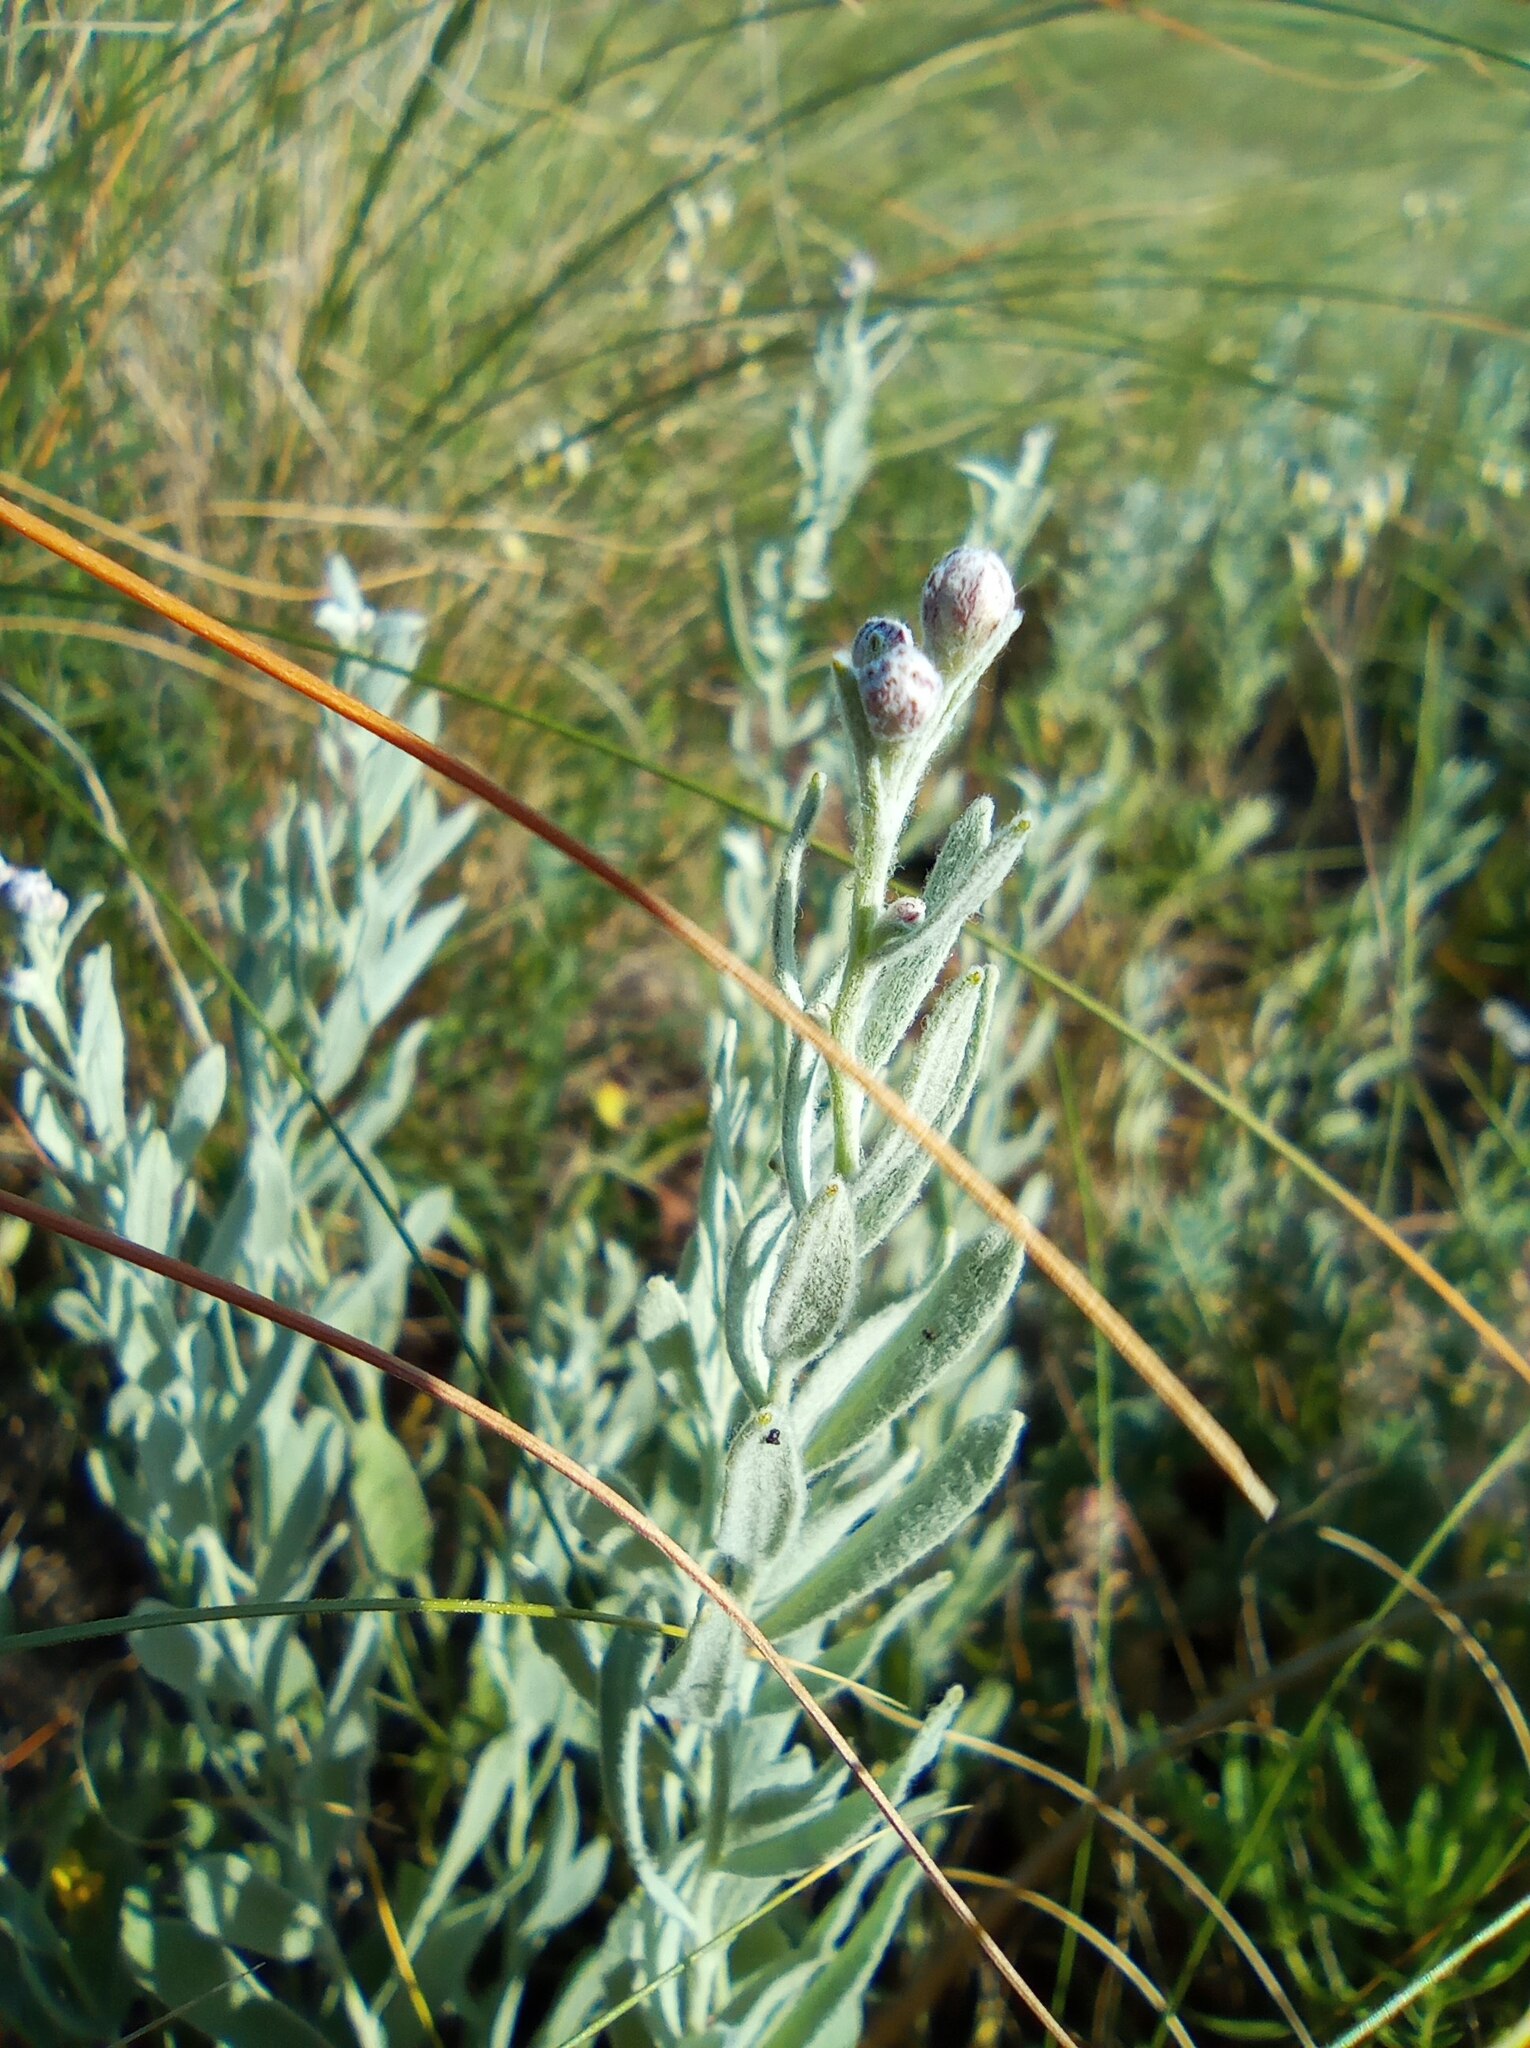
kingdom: Plantae
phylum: Tracheophyta
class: Magnoliopsida
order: Asterales
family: Asteraceae
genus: Galatella
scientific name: Galatella villosa
